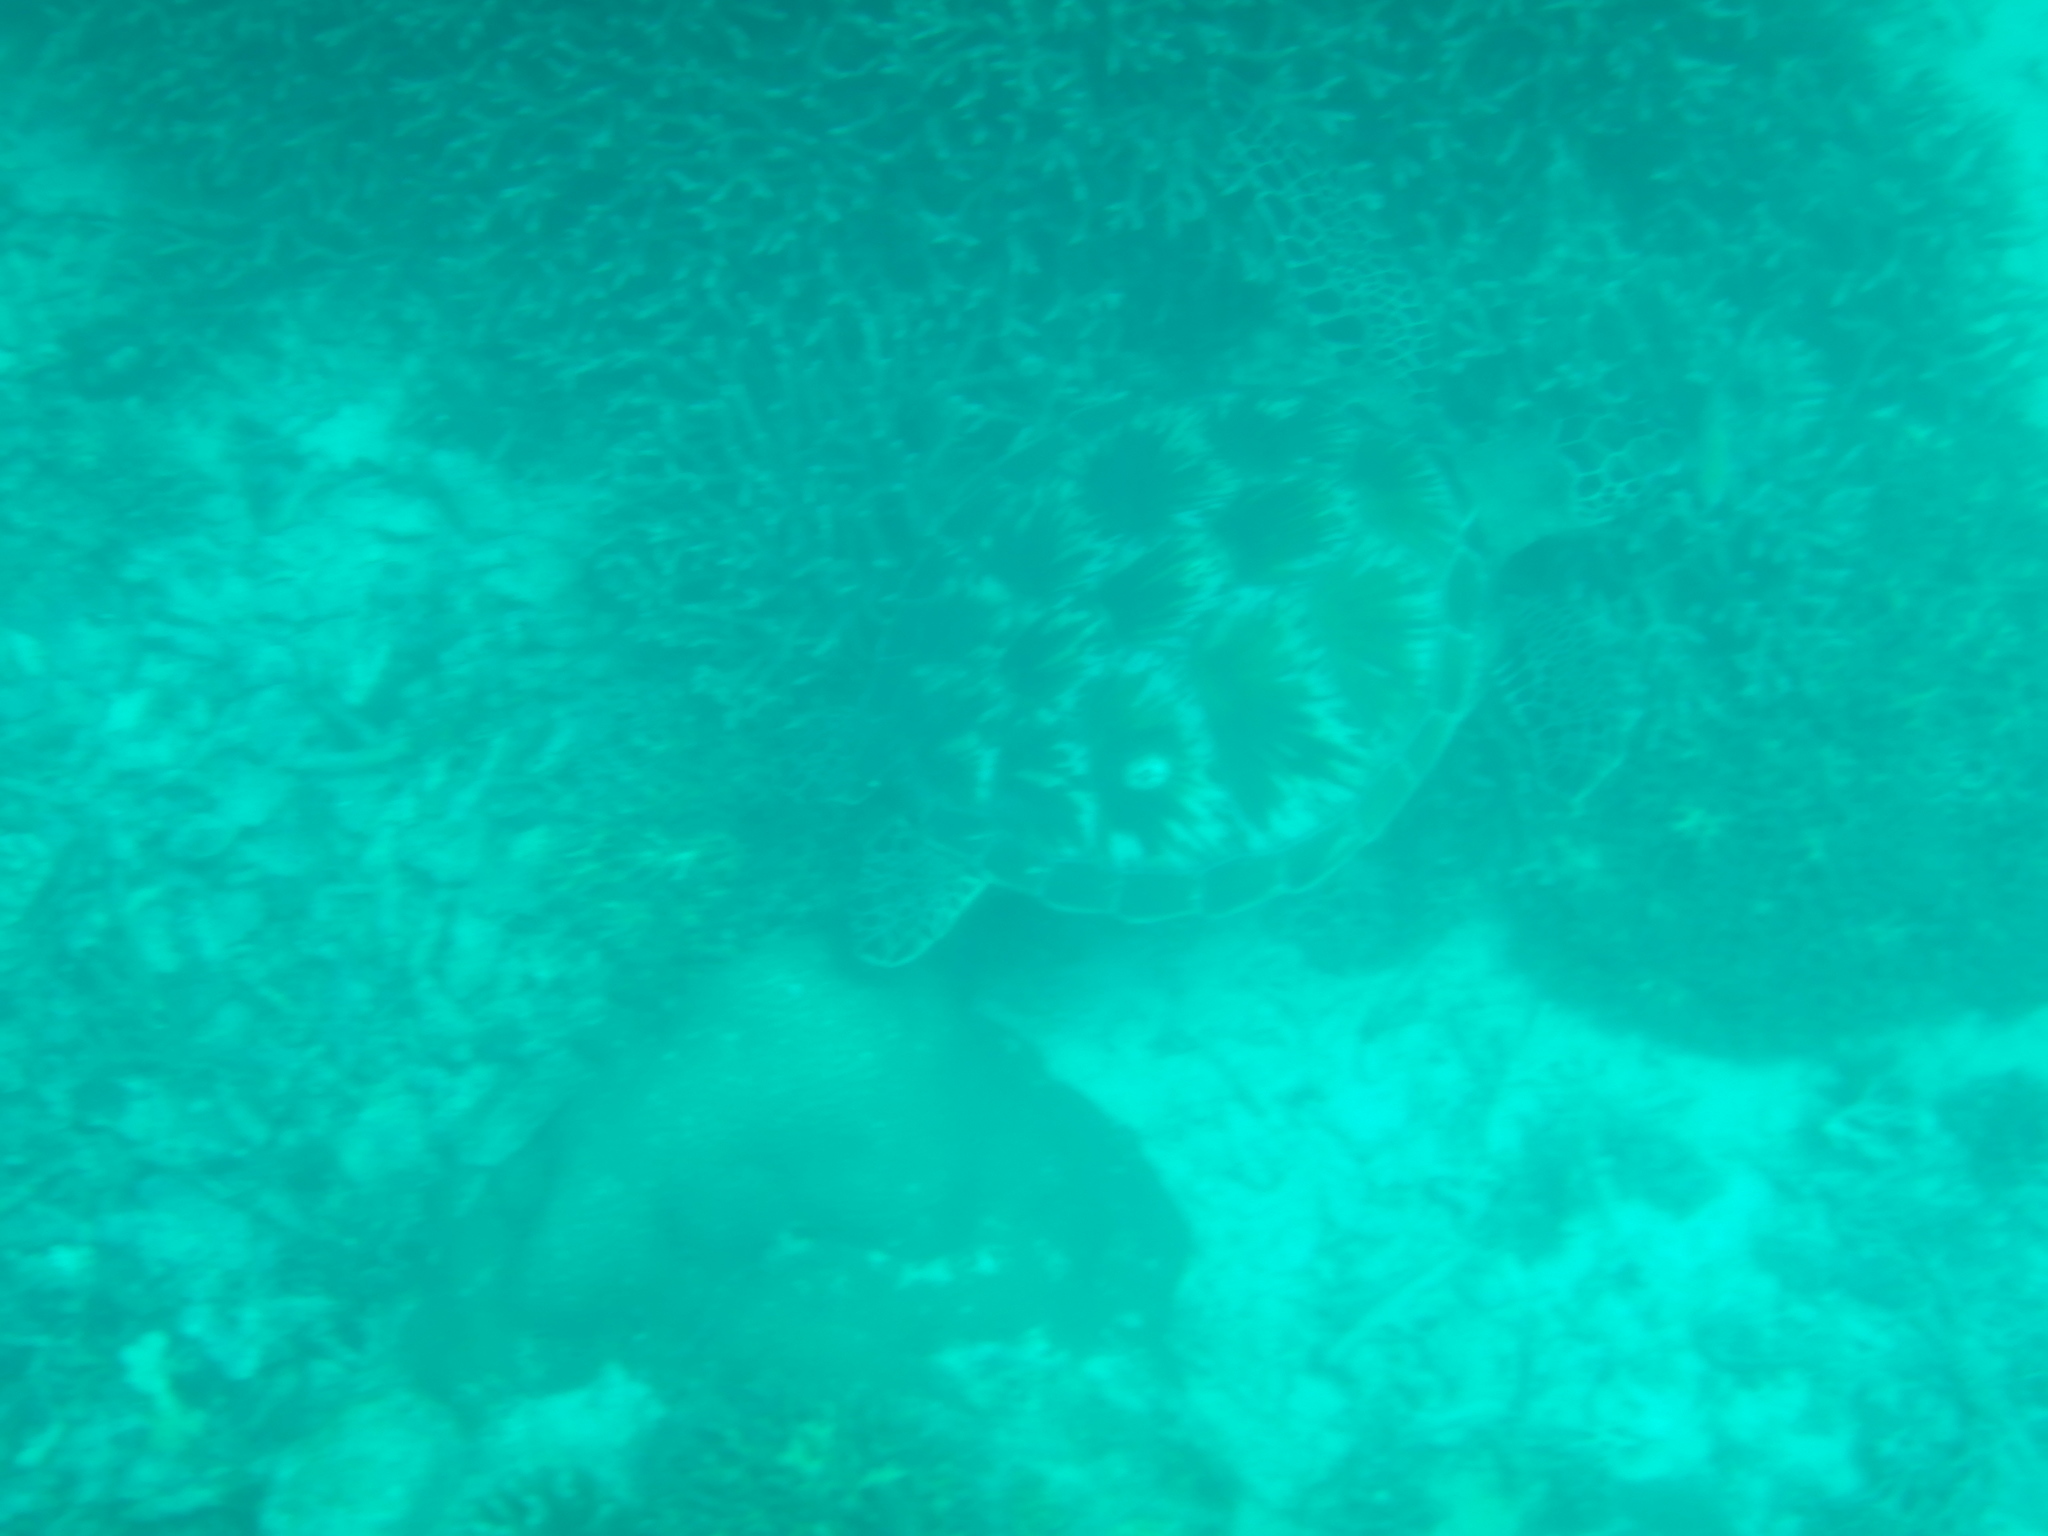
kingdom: Animalia
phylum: Chordata
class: Testudines
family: Cheloniidae
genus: Chelonia
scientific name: Chelonia mydas
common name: Green turtle
